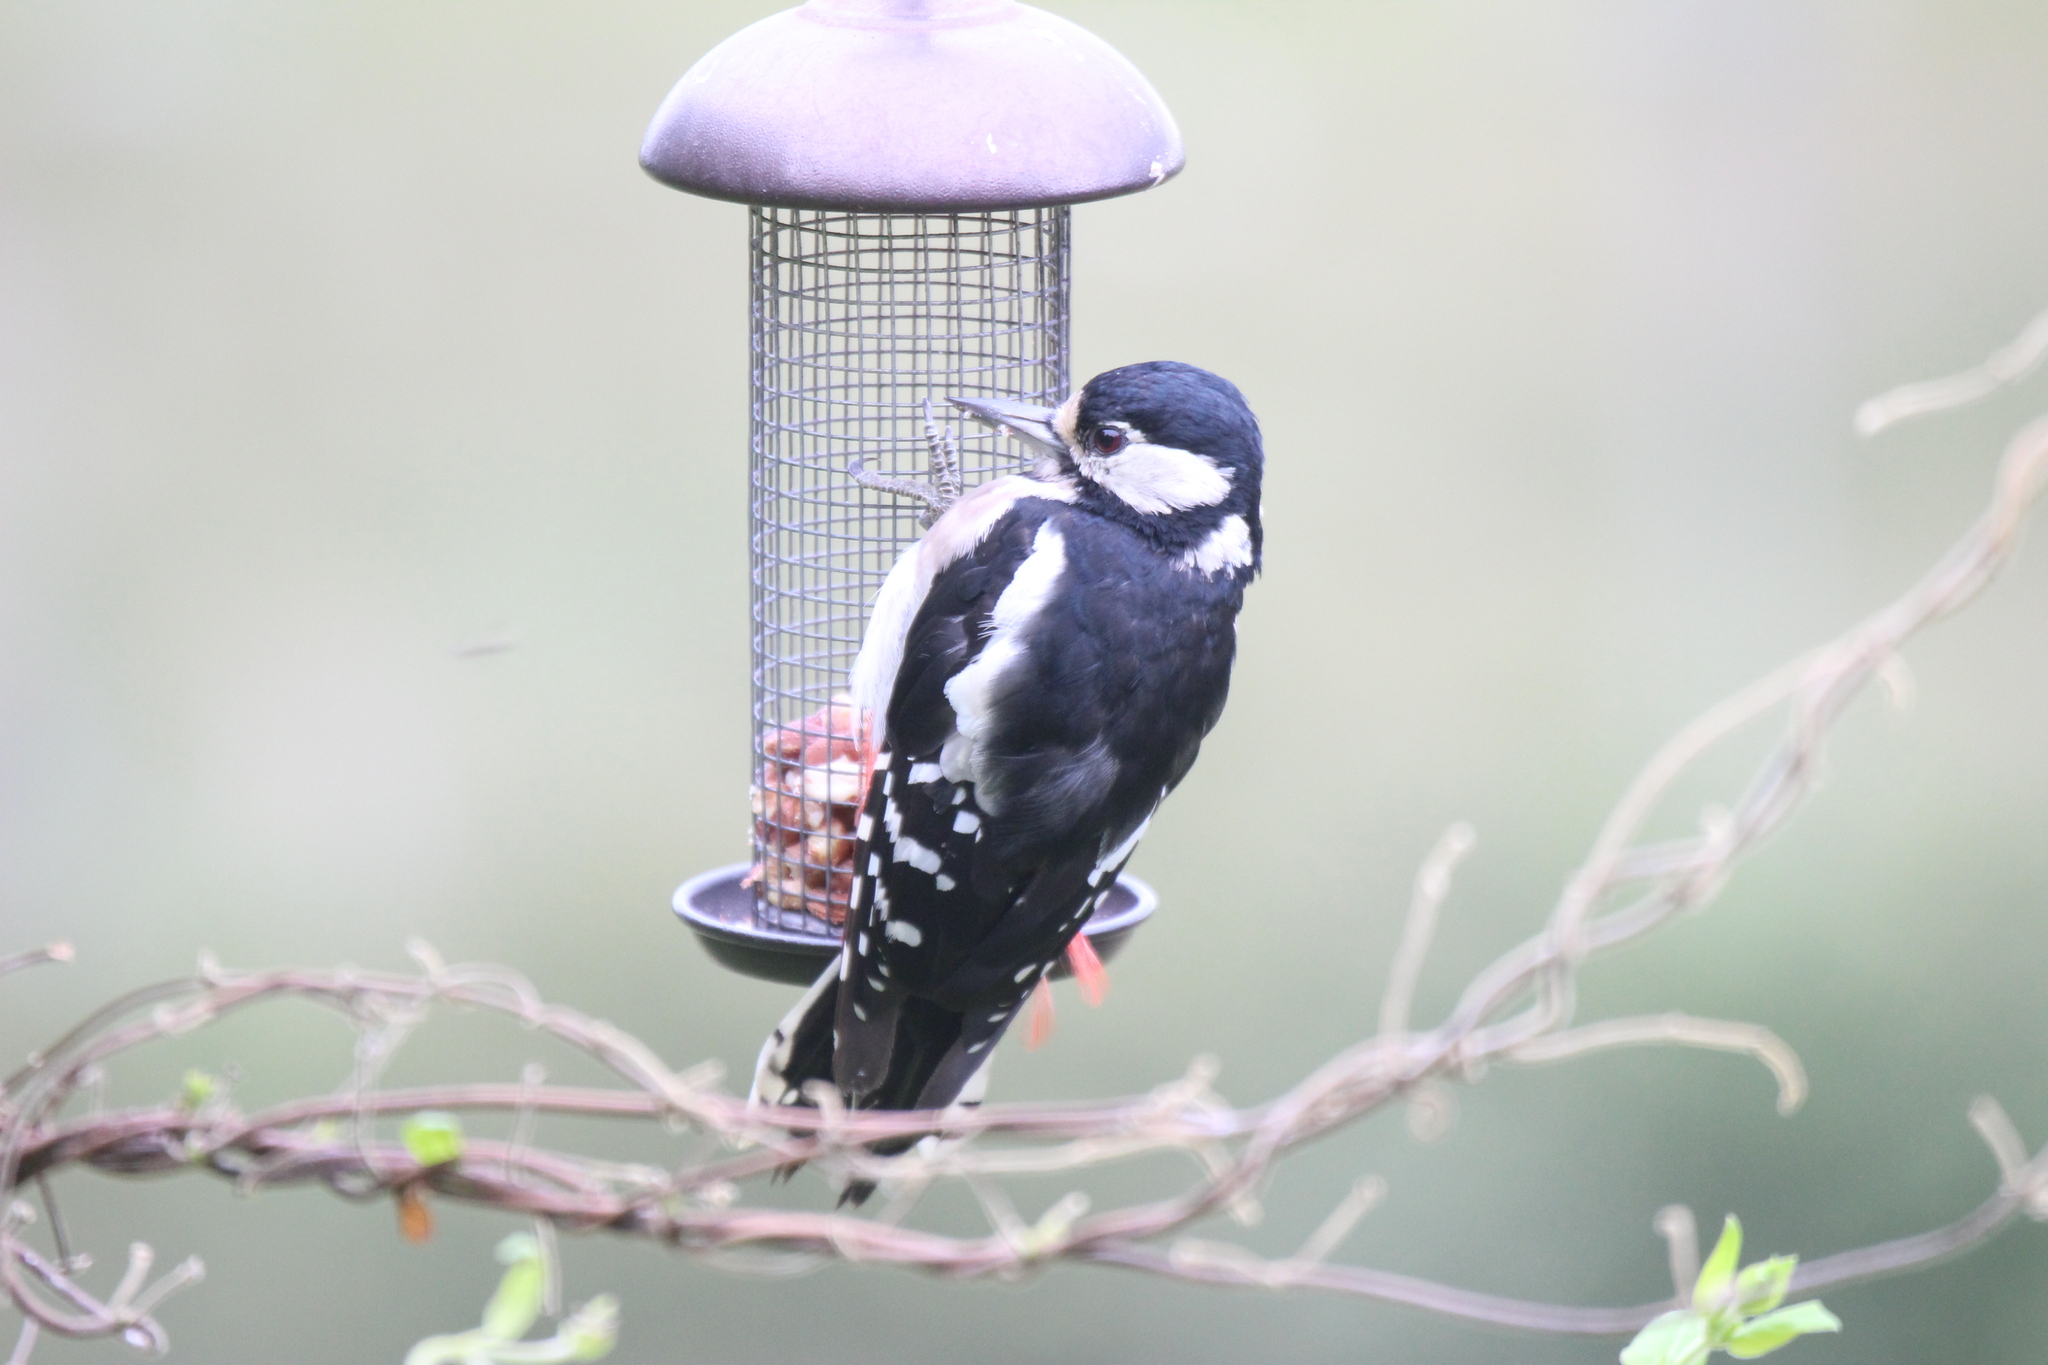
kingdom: Animalia
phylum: Chordata
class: Aves
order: Piciformes
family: Picidae
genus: Dendrocopos
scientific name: Dendrocopos major
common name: Great spotted woodpecker
